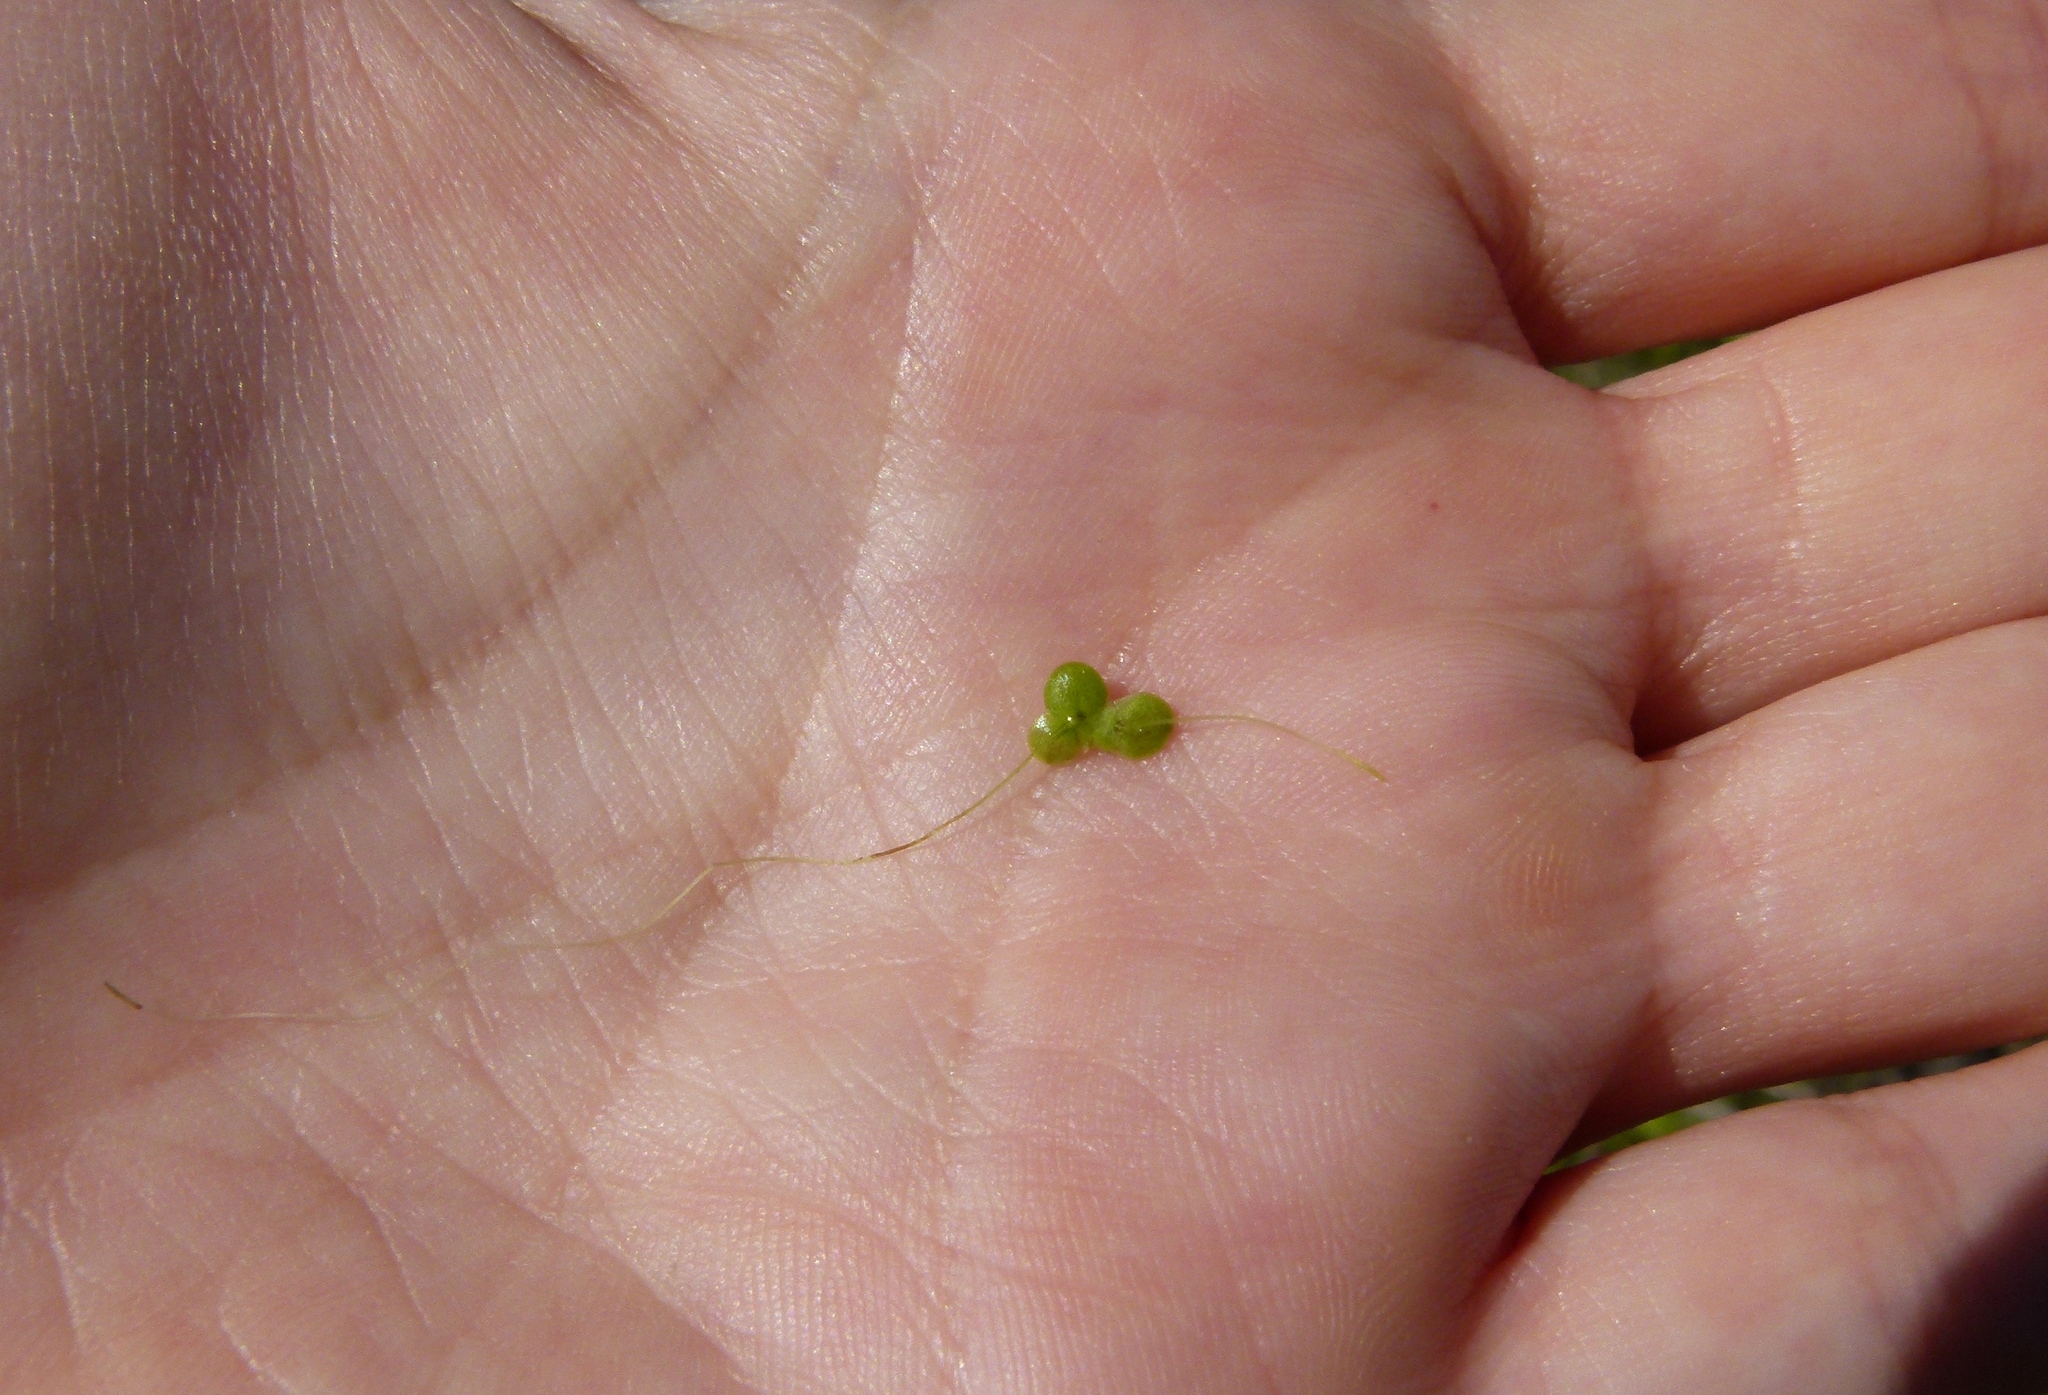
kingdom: Plantae
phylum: Tracheophyta
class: Liliopsida
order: Alismatales
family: Araceae
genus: Lemna
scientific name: Lemna
